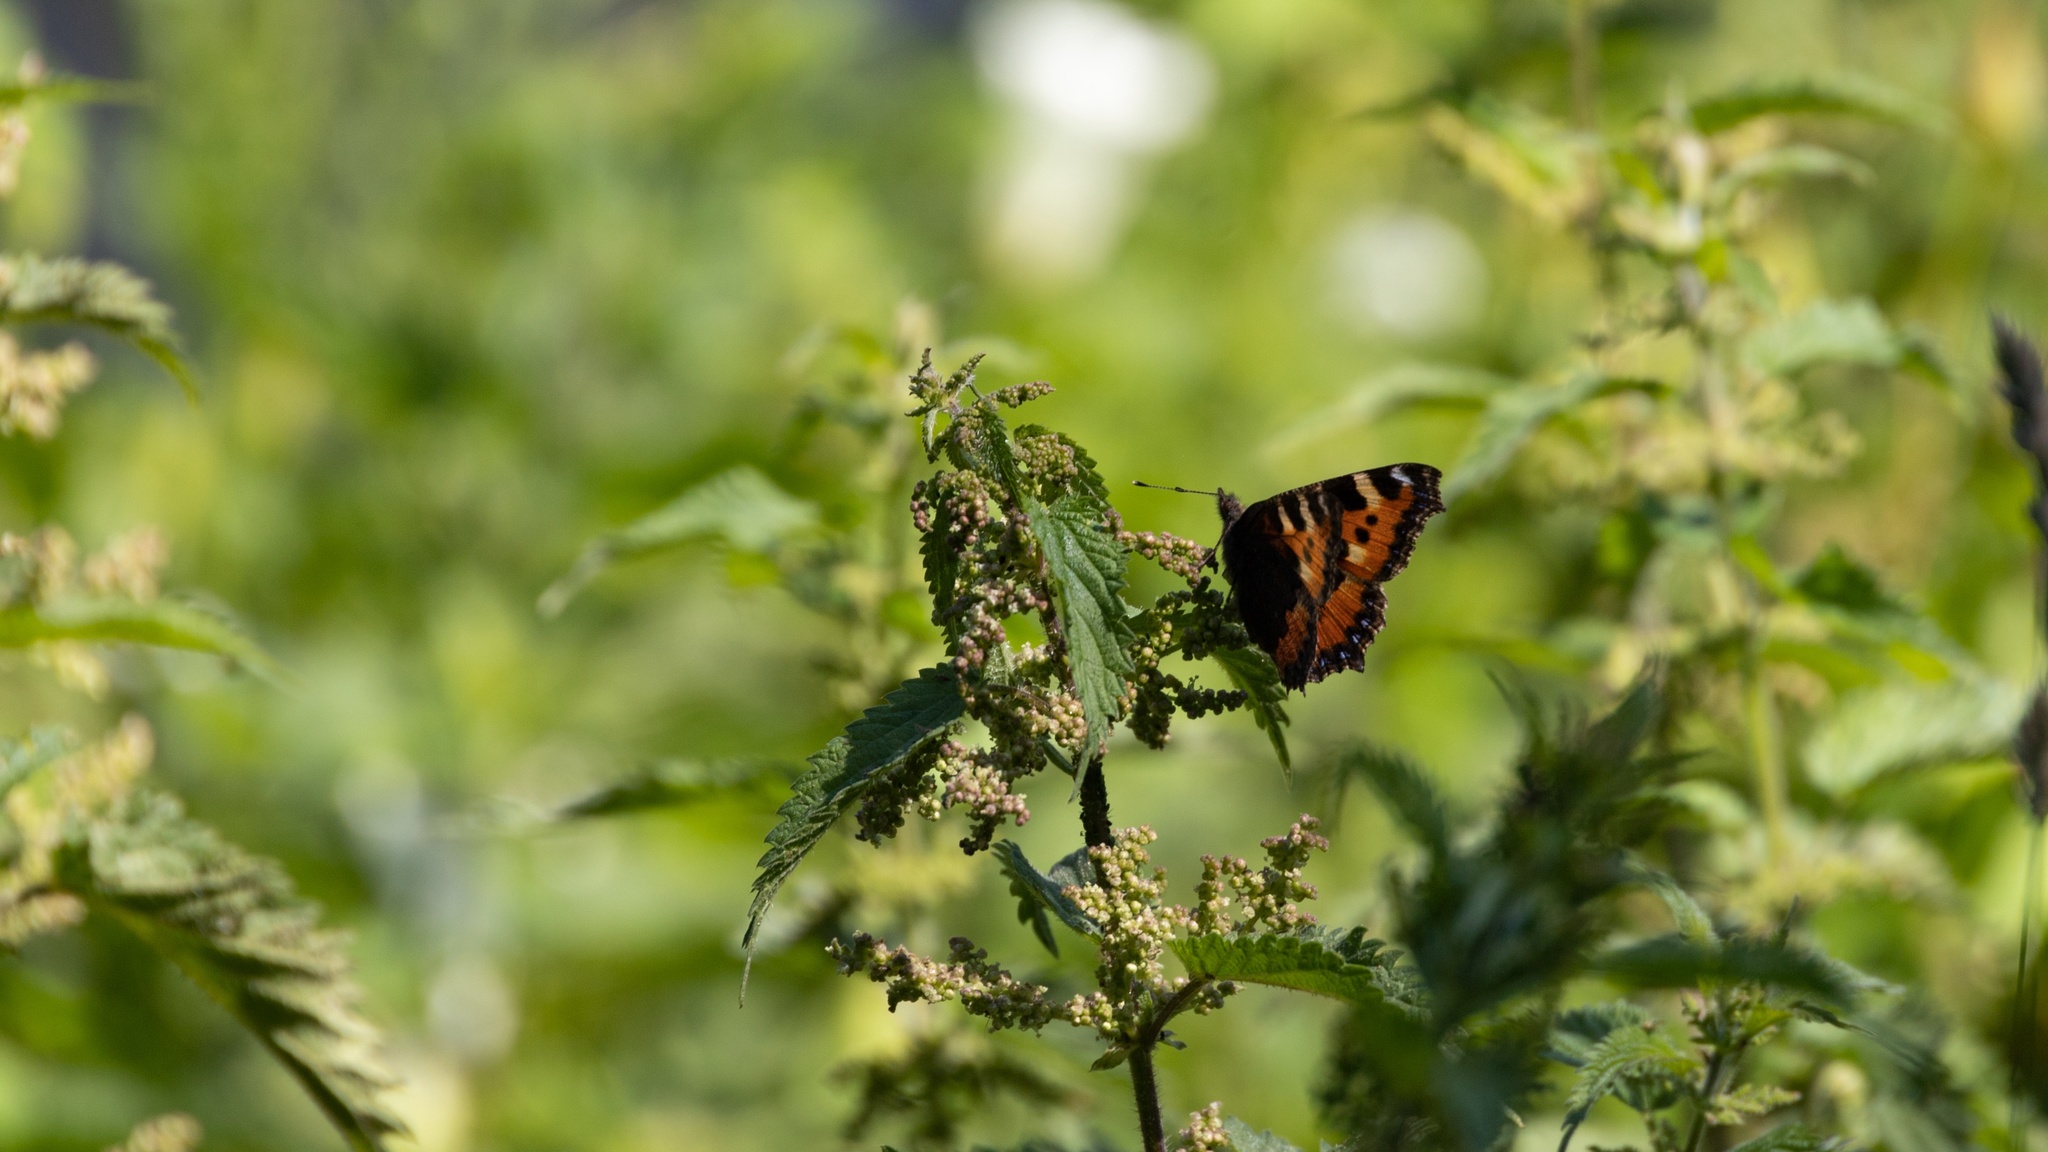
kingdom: Animalia
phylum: Arthropoda
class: Insecta
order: Lepidoptera
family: Nymphalidae
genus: Aglais
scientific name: Aglais urticae
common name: Small tortoiseshell
